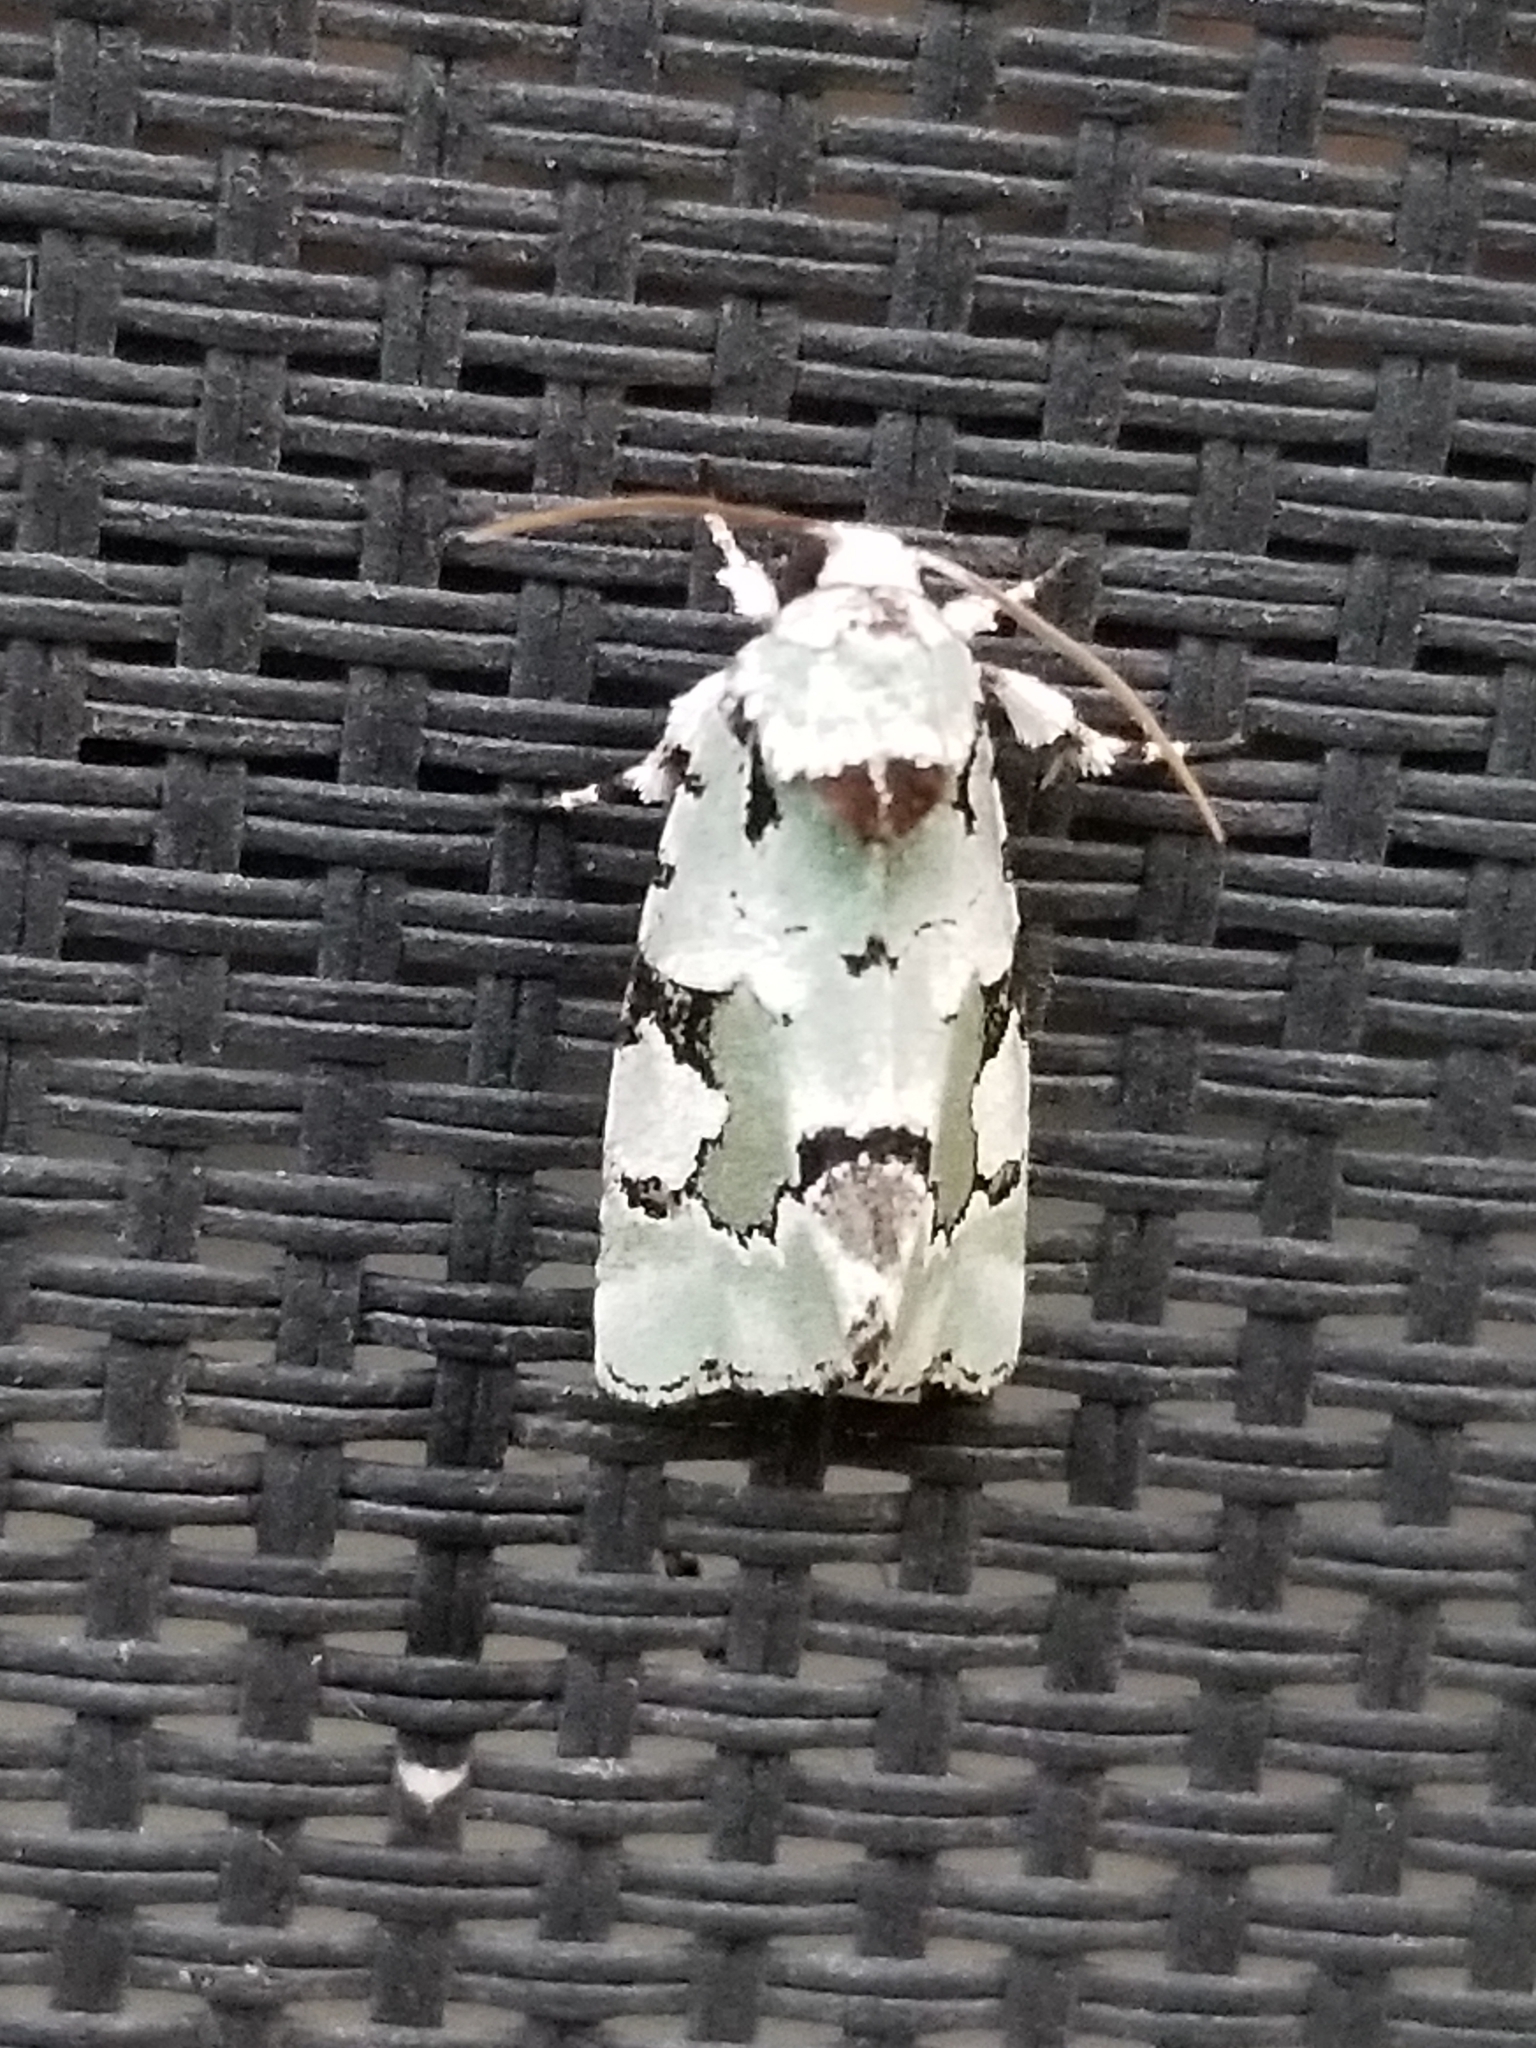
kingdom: Animalia
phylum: Arthropoda
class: Insecta
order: Lepidoptera
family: Noctuidae
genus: Emarginea
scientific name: Emarginea percara
